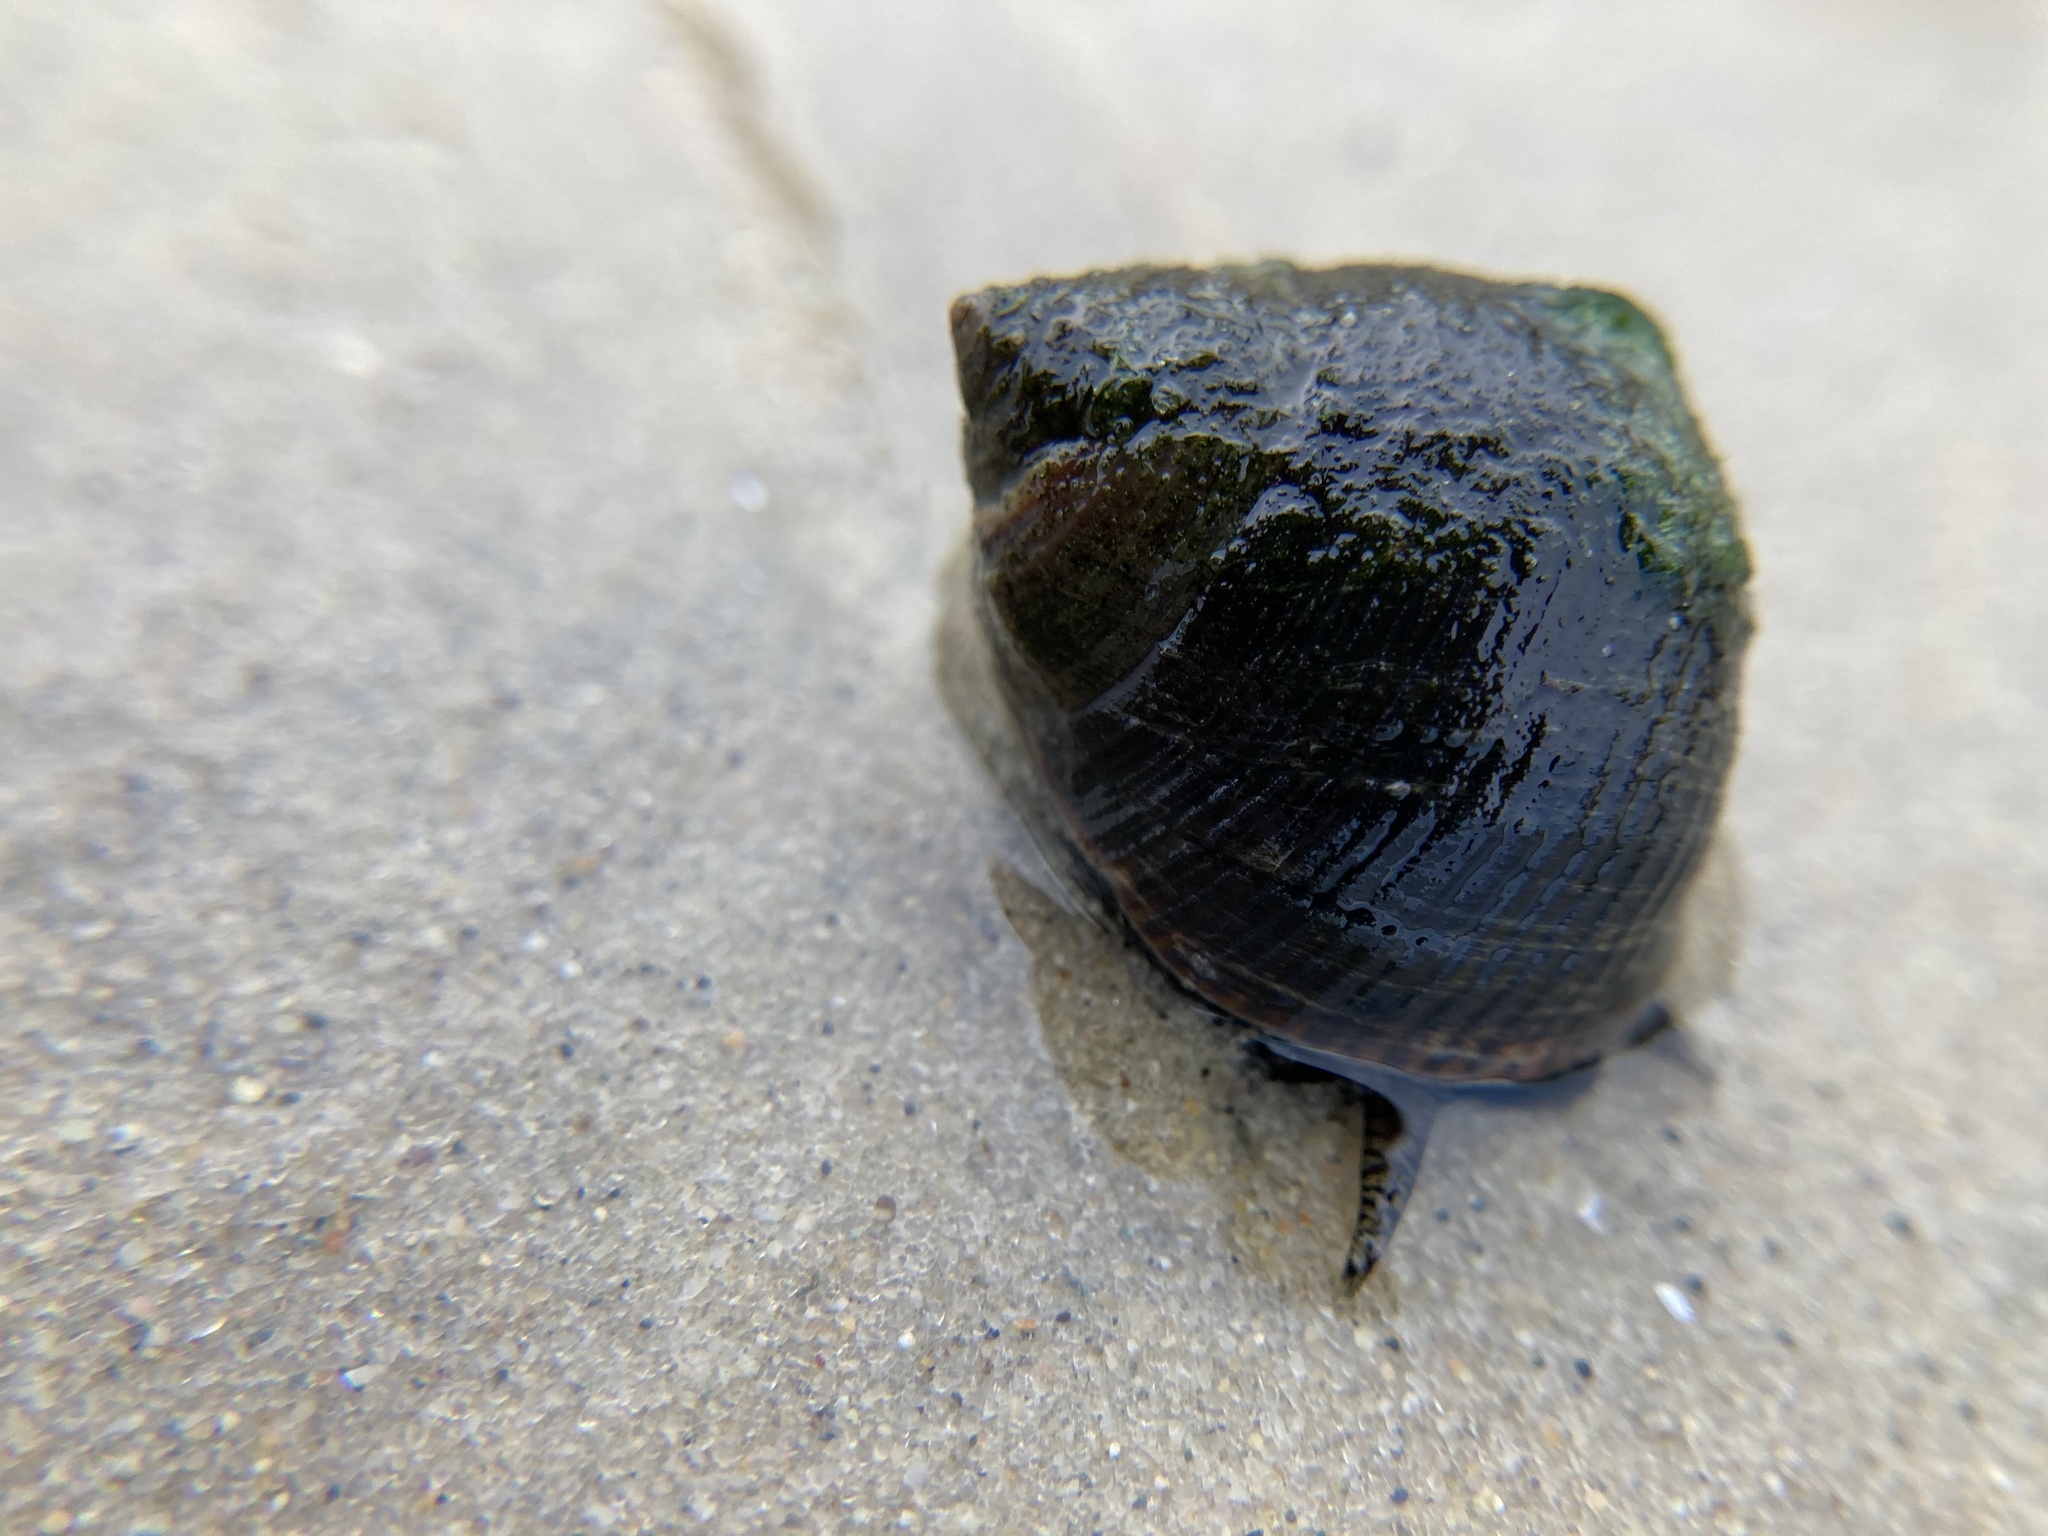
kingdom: Animalia
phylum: Mollusca
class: Gastropoda
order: Littorinimorpha
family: Littorinidae
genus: Littorina
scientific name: Littorina littorea
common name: Common periwinkle
